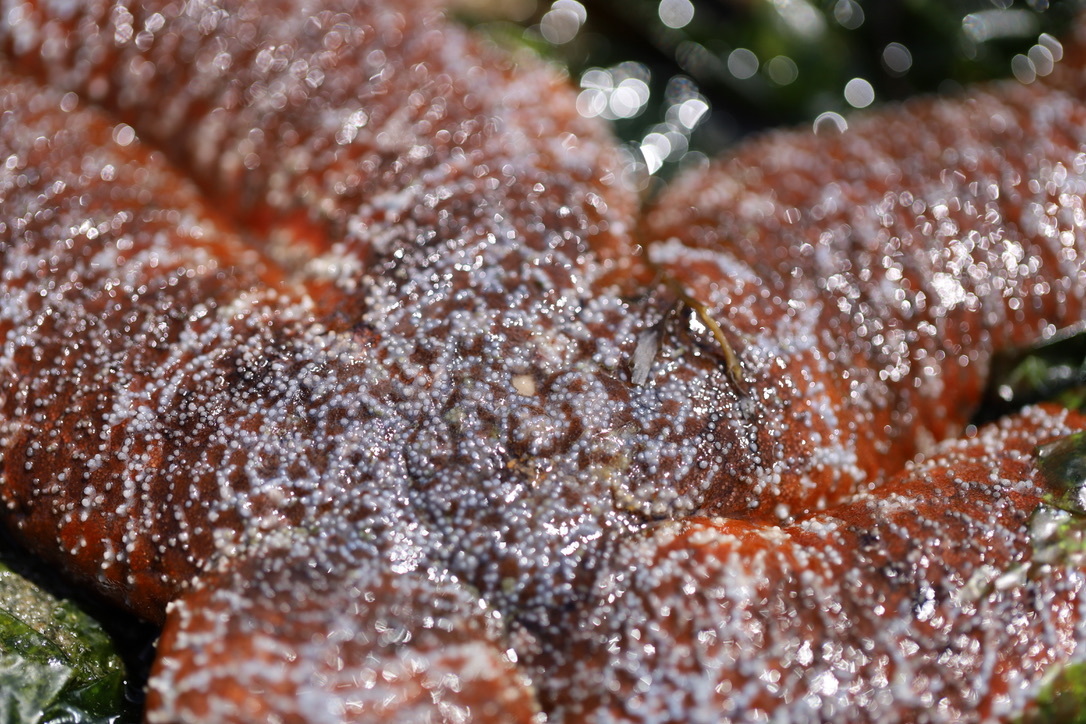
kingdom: Animalia
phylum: Echinodermata
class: Asteroidea
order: Forcipulatida
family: Asteriidae
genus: Evasterias
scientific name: Evasterias troschelii
